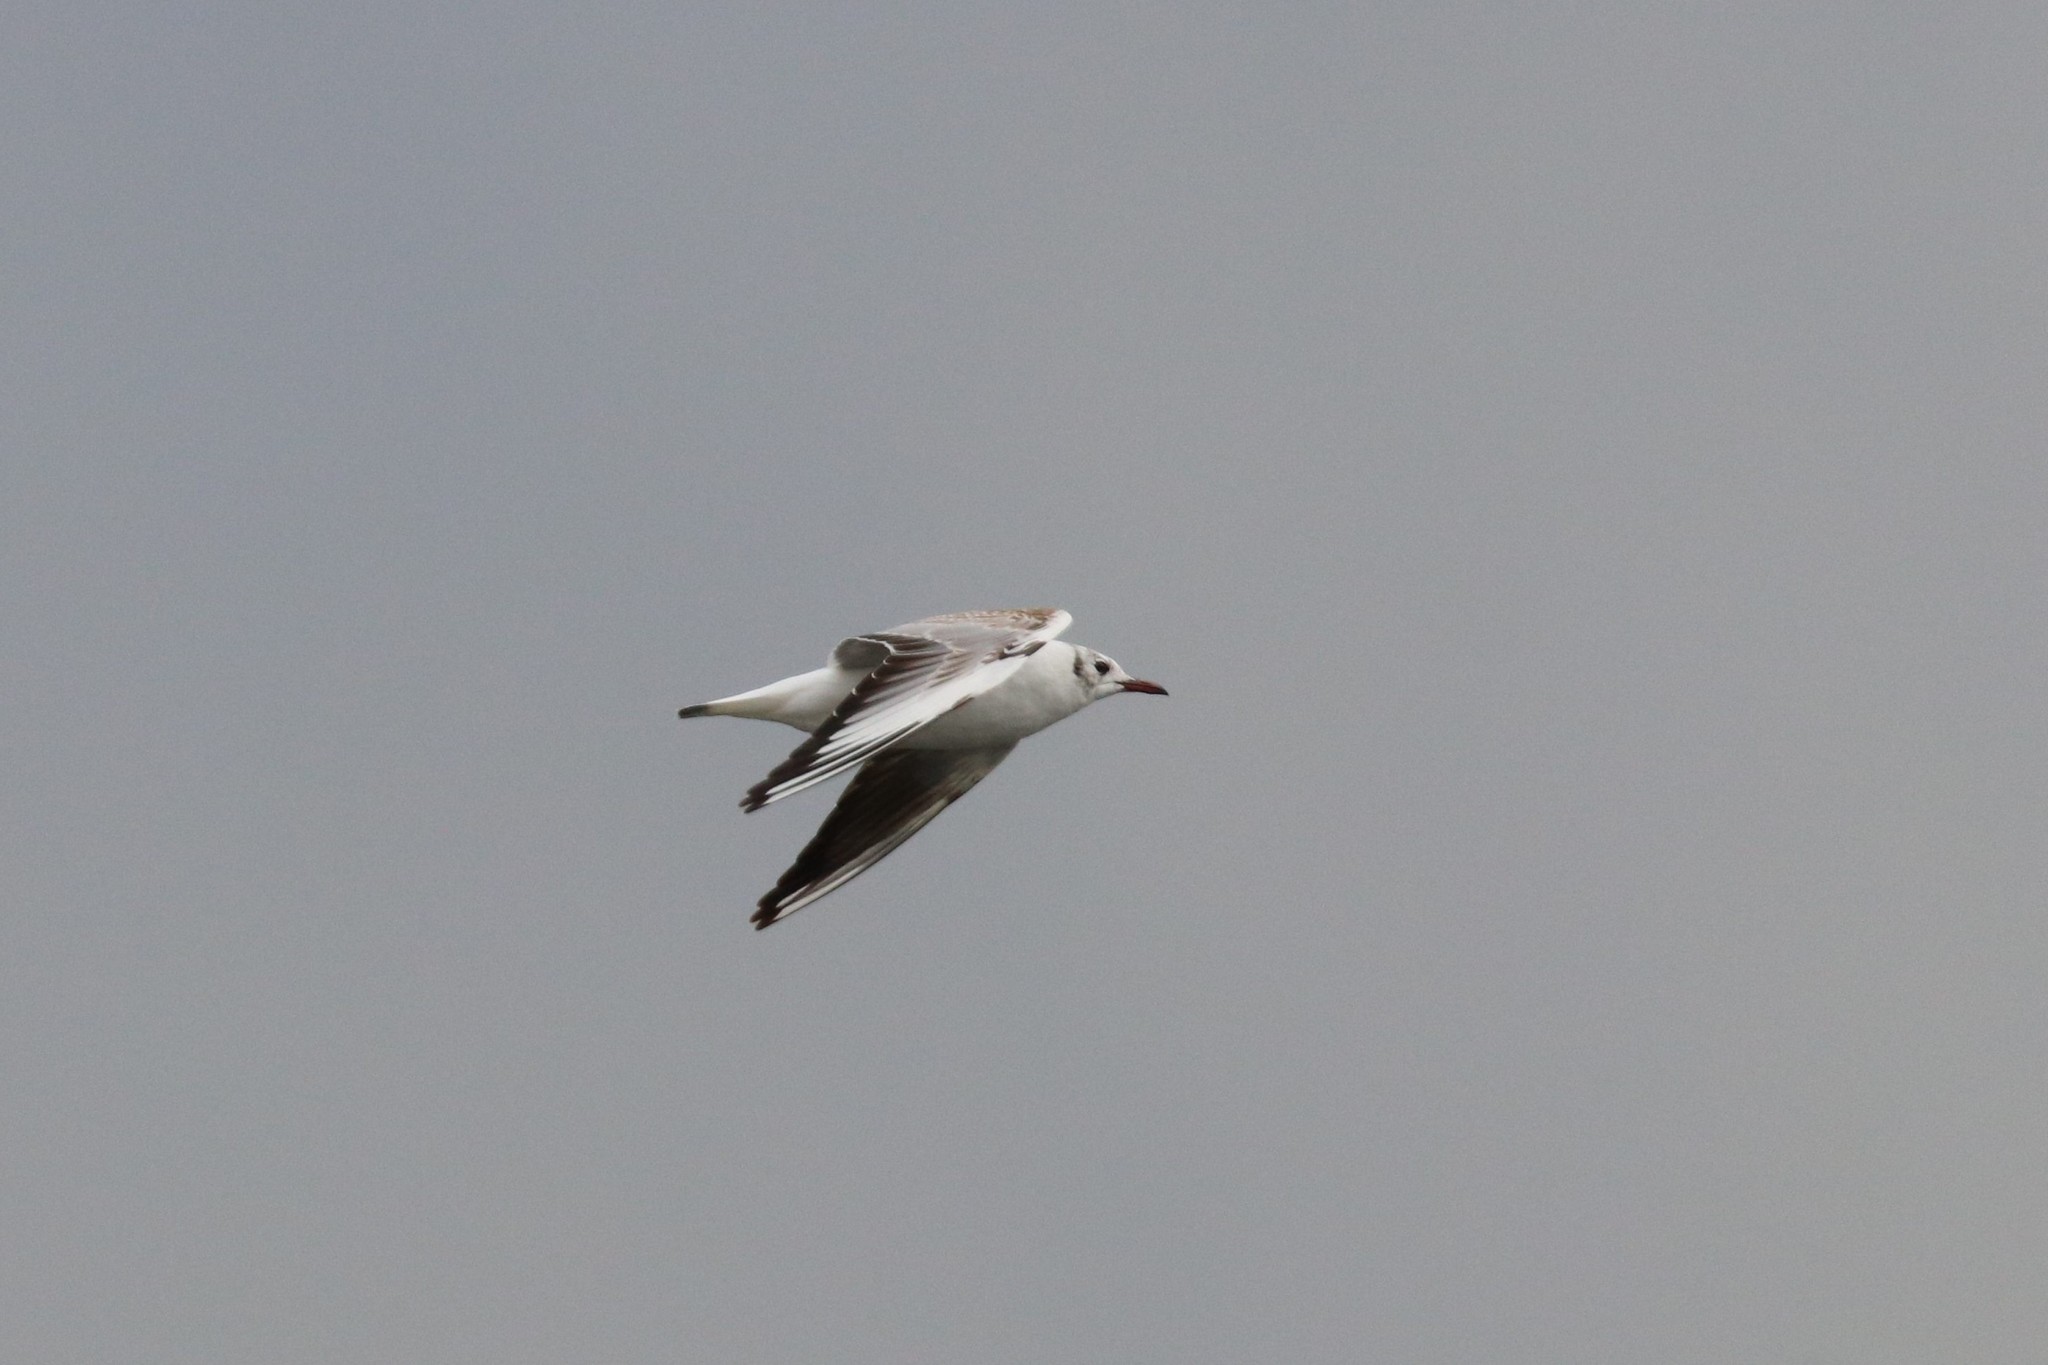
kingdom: Animalia
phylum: Chordata
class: Aves
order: Charadriiformes
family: Laridae
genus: Chroicocephalus
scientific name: Chroicocephalus ridibundus
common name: Black-headed gull
